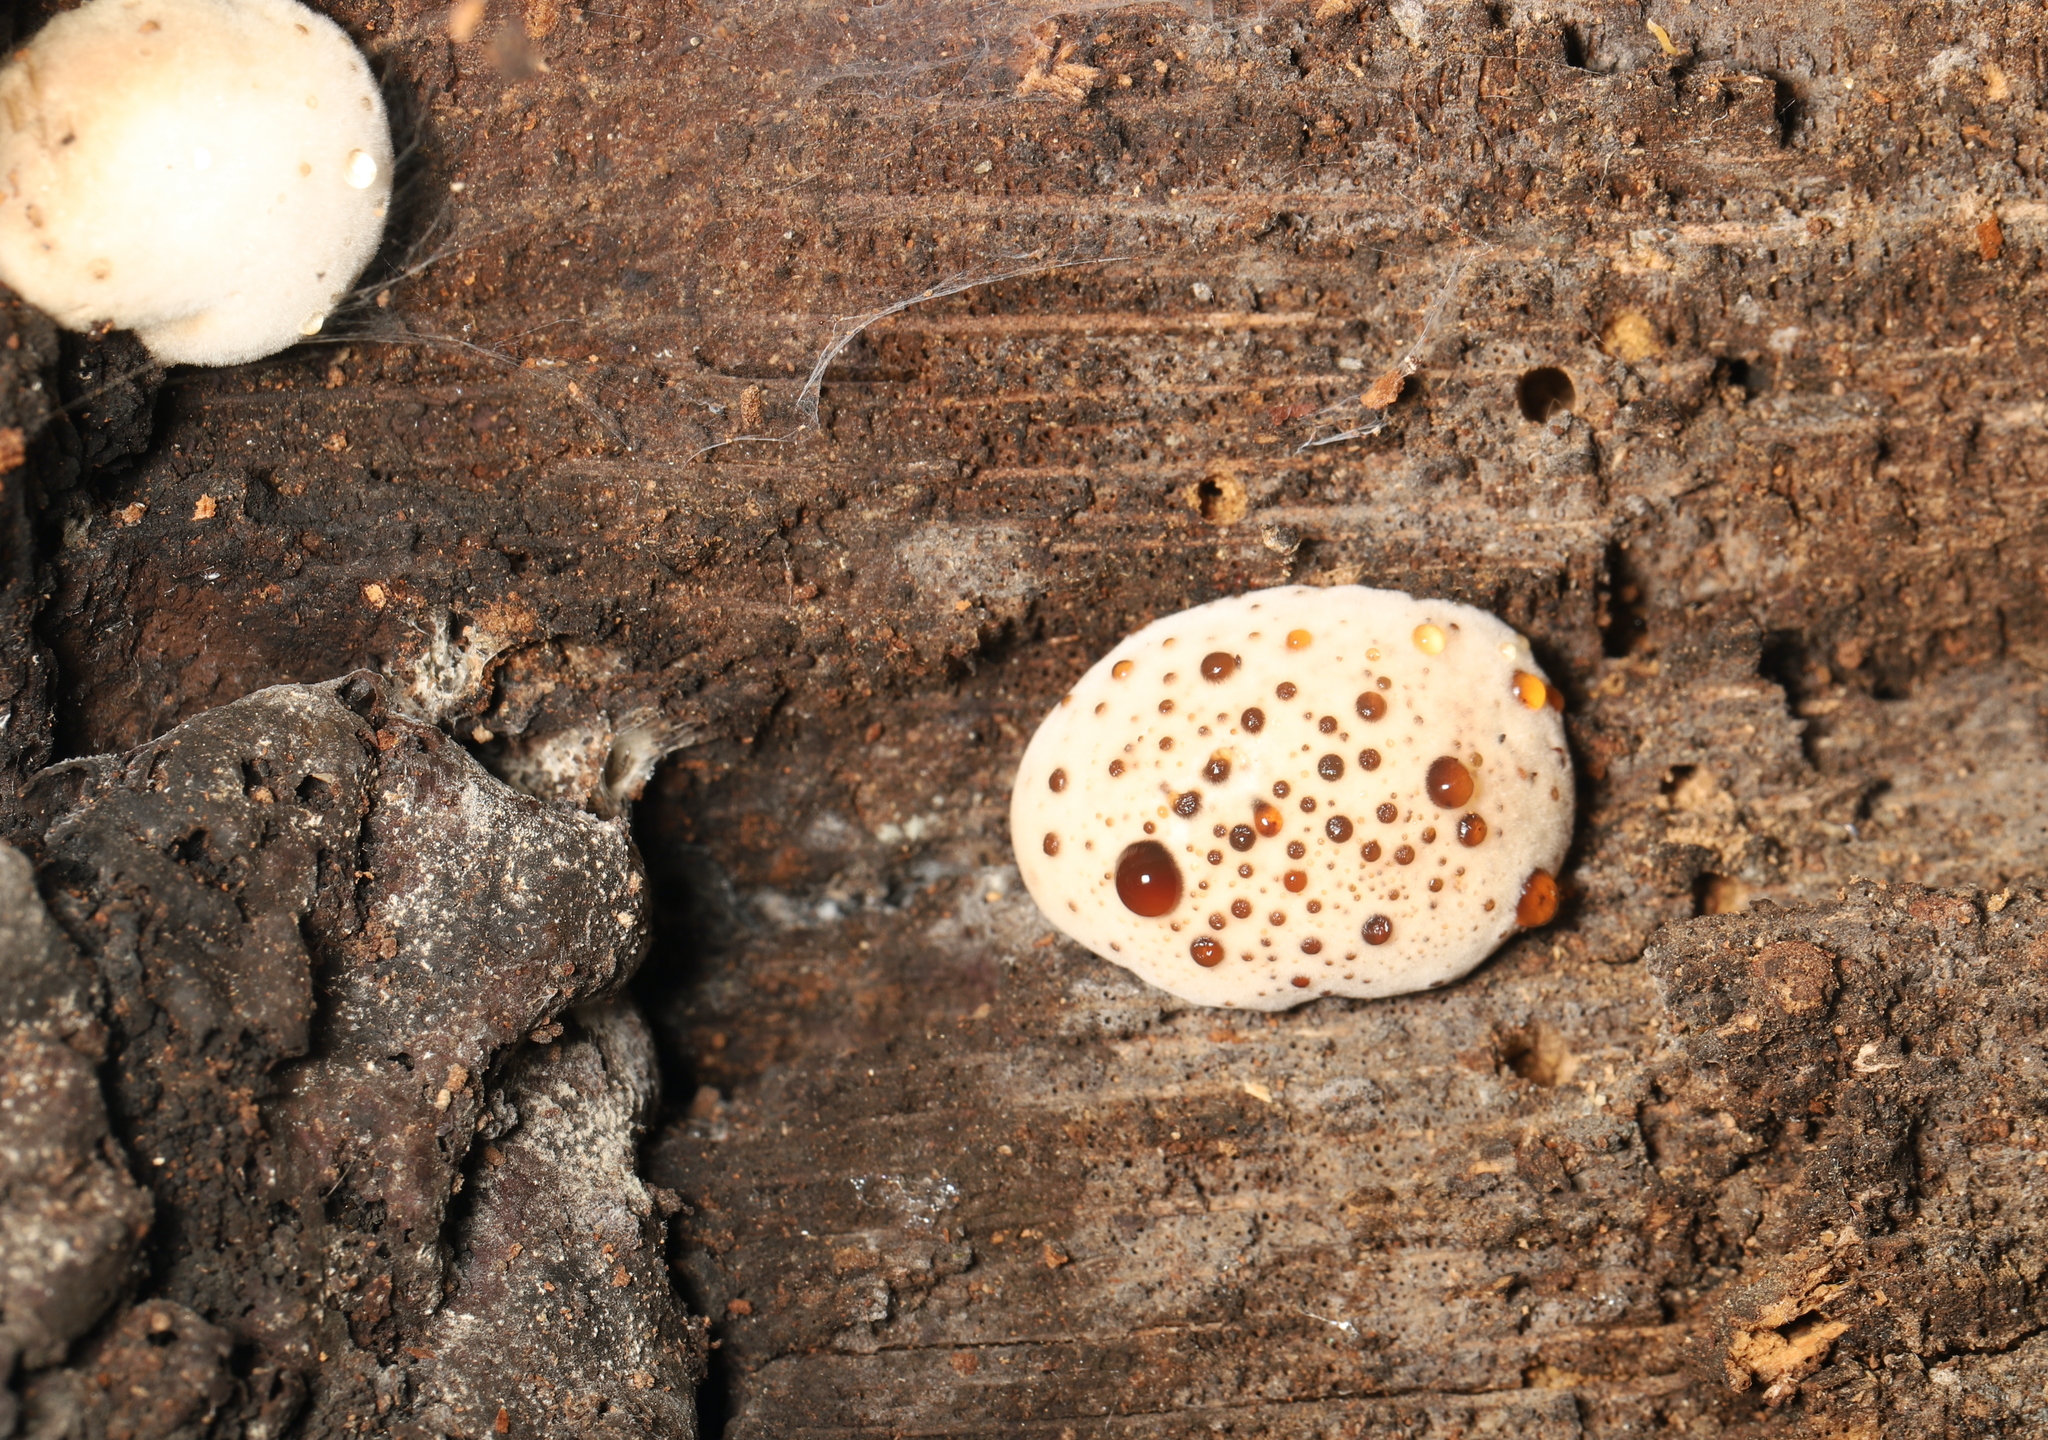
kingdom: Fungi
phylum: Ascomycota
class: Sordariomycetes
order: Boliniales
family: Boliniaceae
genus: Camarops
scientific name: Camarops petersii
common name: Dog's nose fungus
